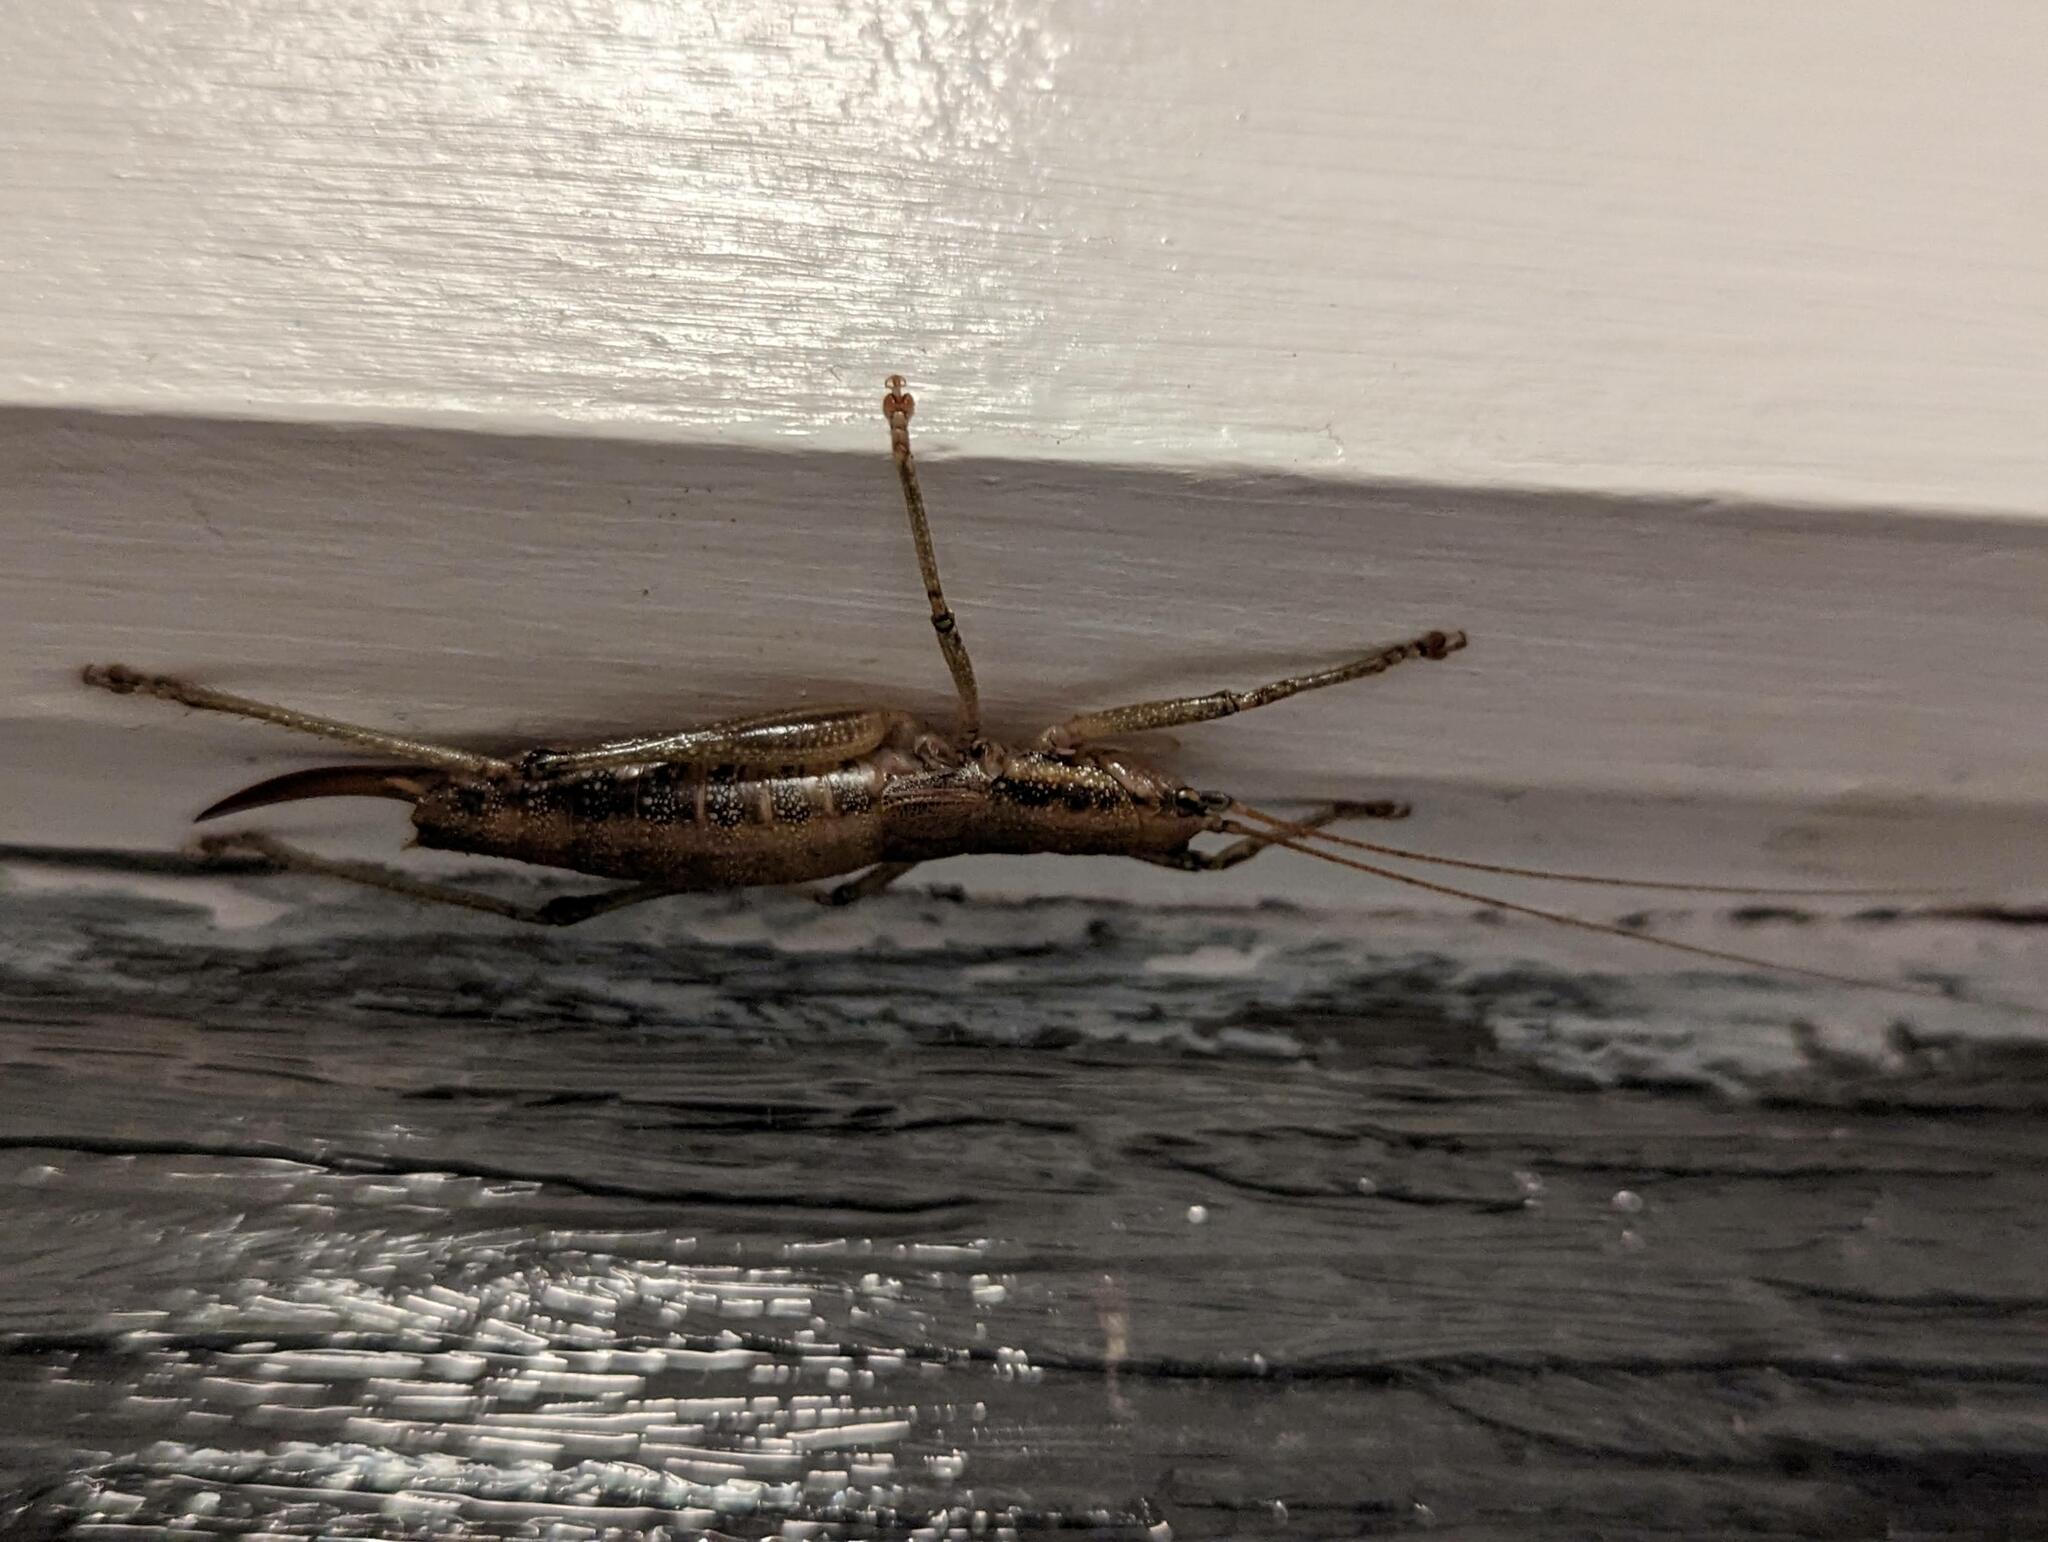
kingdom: Animalia
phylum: Arthropoda
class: Insecta
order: Orthoptera
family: Tettigoniidae
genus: Coptaspis
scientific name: Coptaspis lateralis
